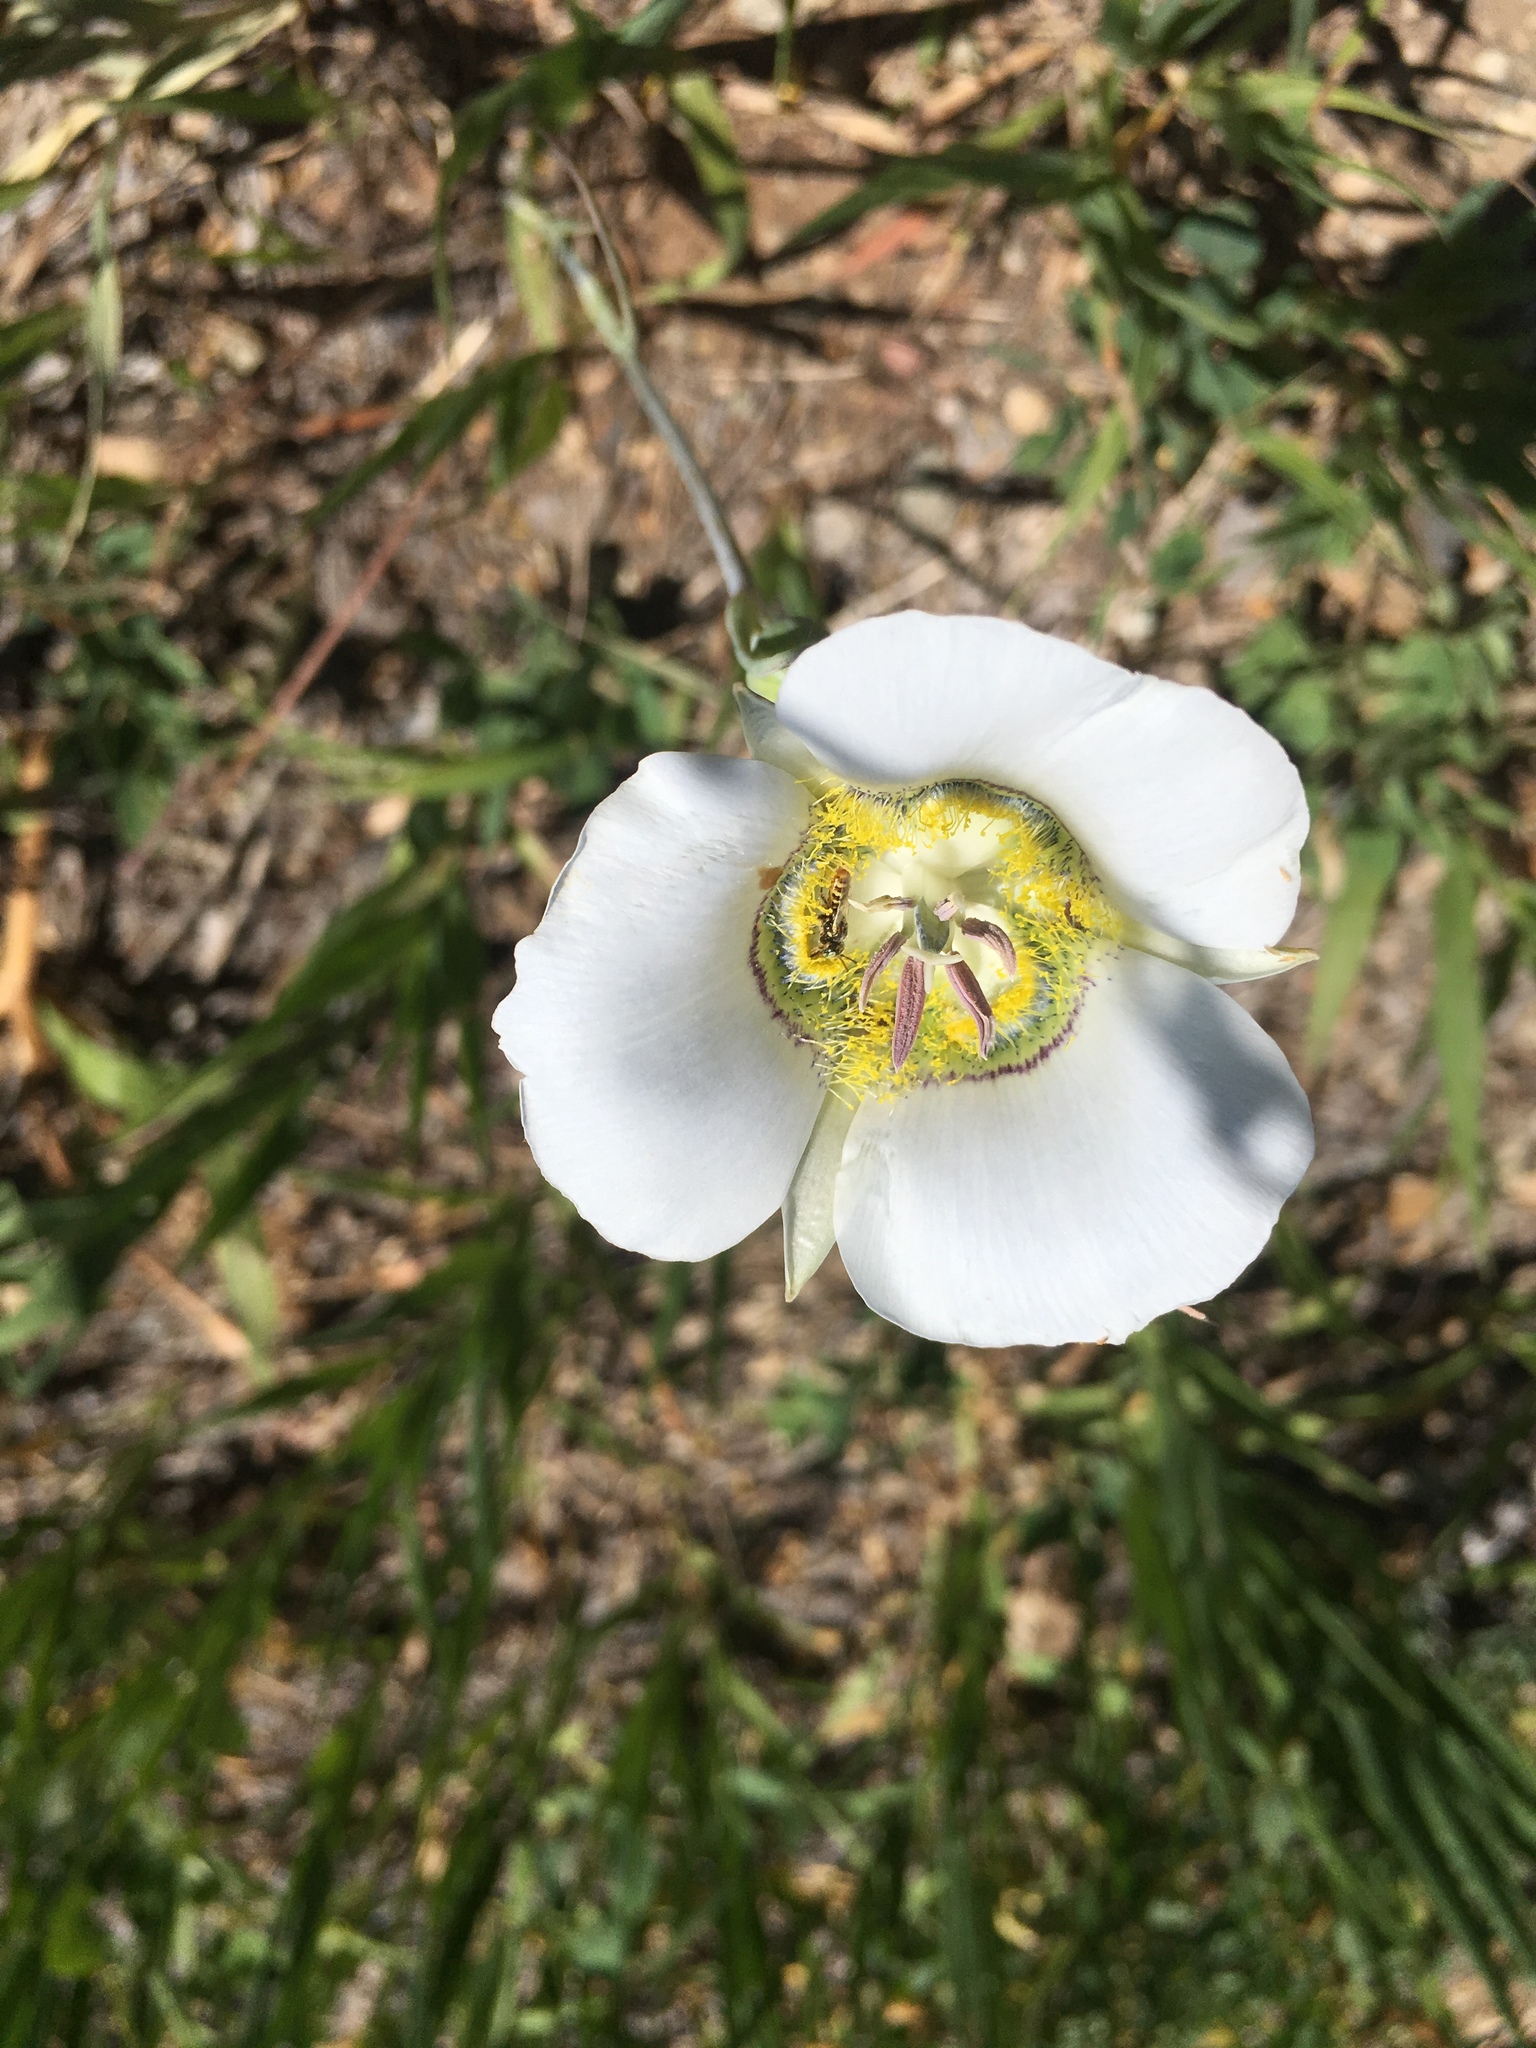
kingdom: Plantae
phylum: Tracheophyta
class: Liliopsida
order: Liliales
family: Liliaceae
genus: Calochortus
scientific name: Calochortus gunnisonii
